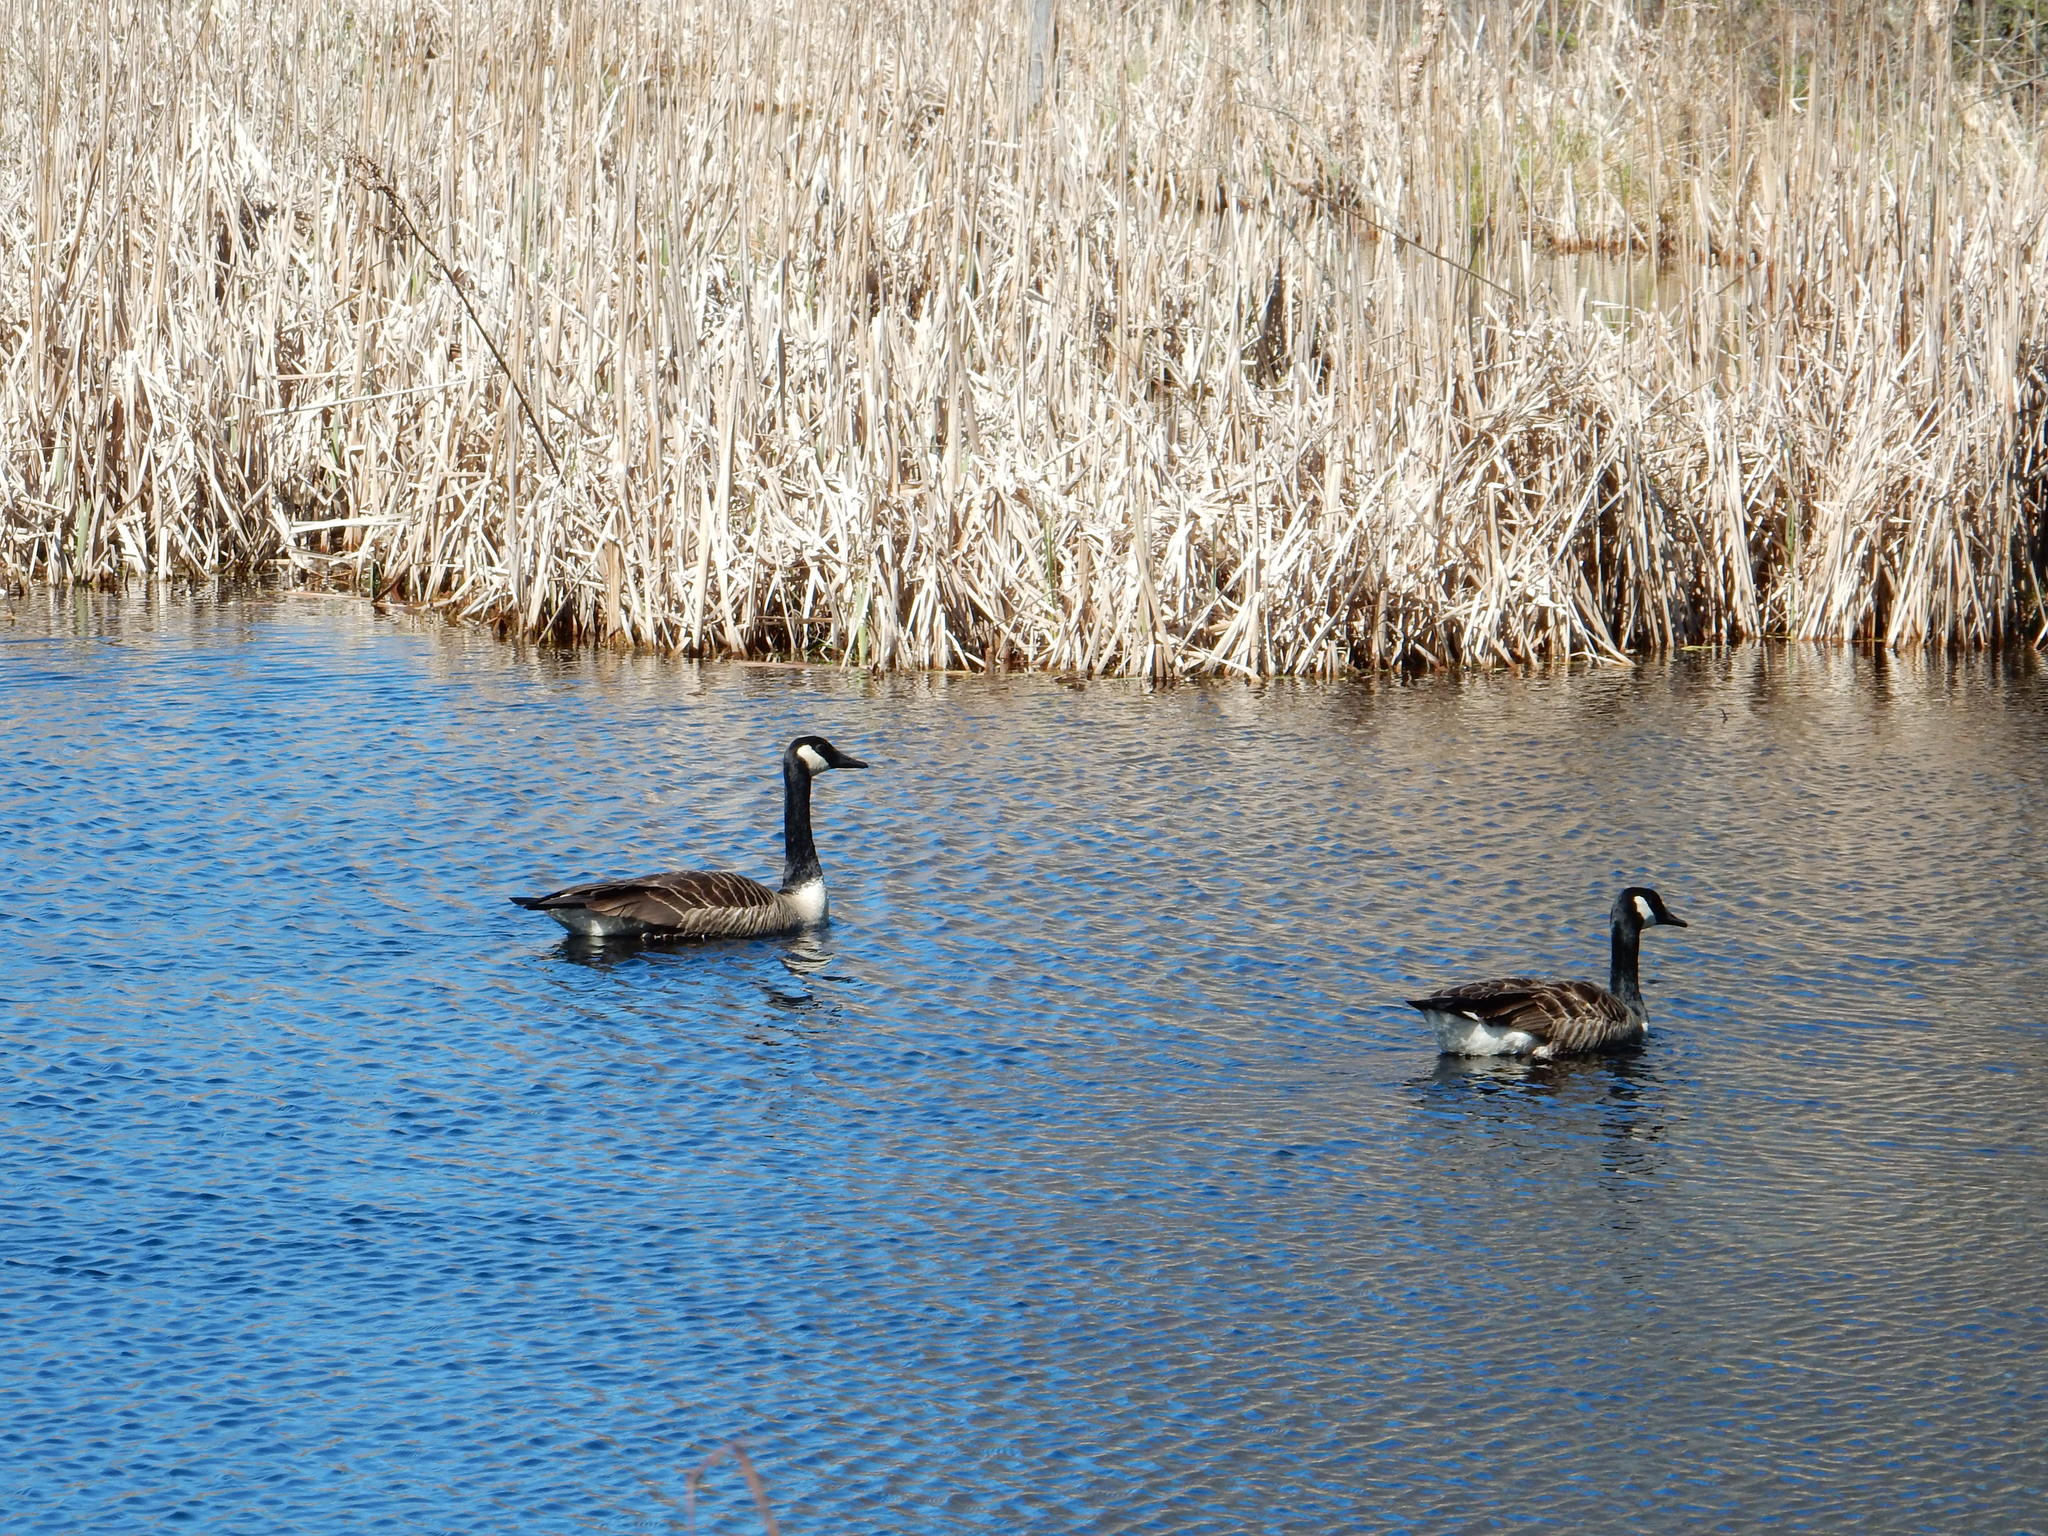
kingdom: Animalia
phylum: Chordata
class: Aves
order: Anseriformes
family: Anatidae
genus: Branta
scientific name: Branta canadensis
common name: Canada goose
